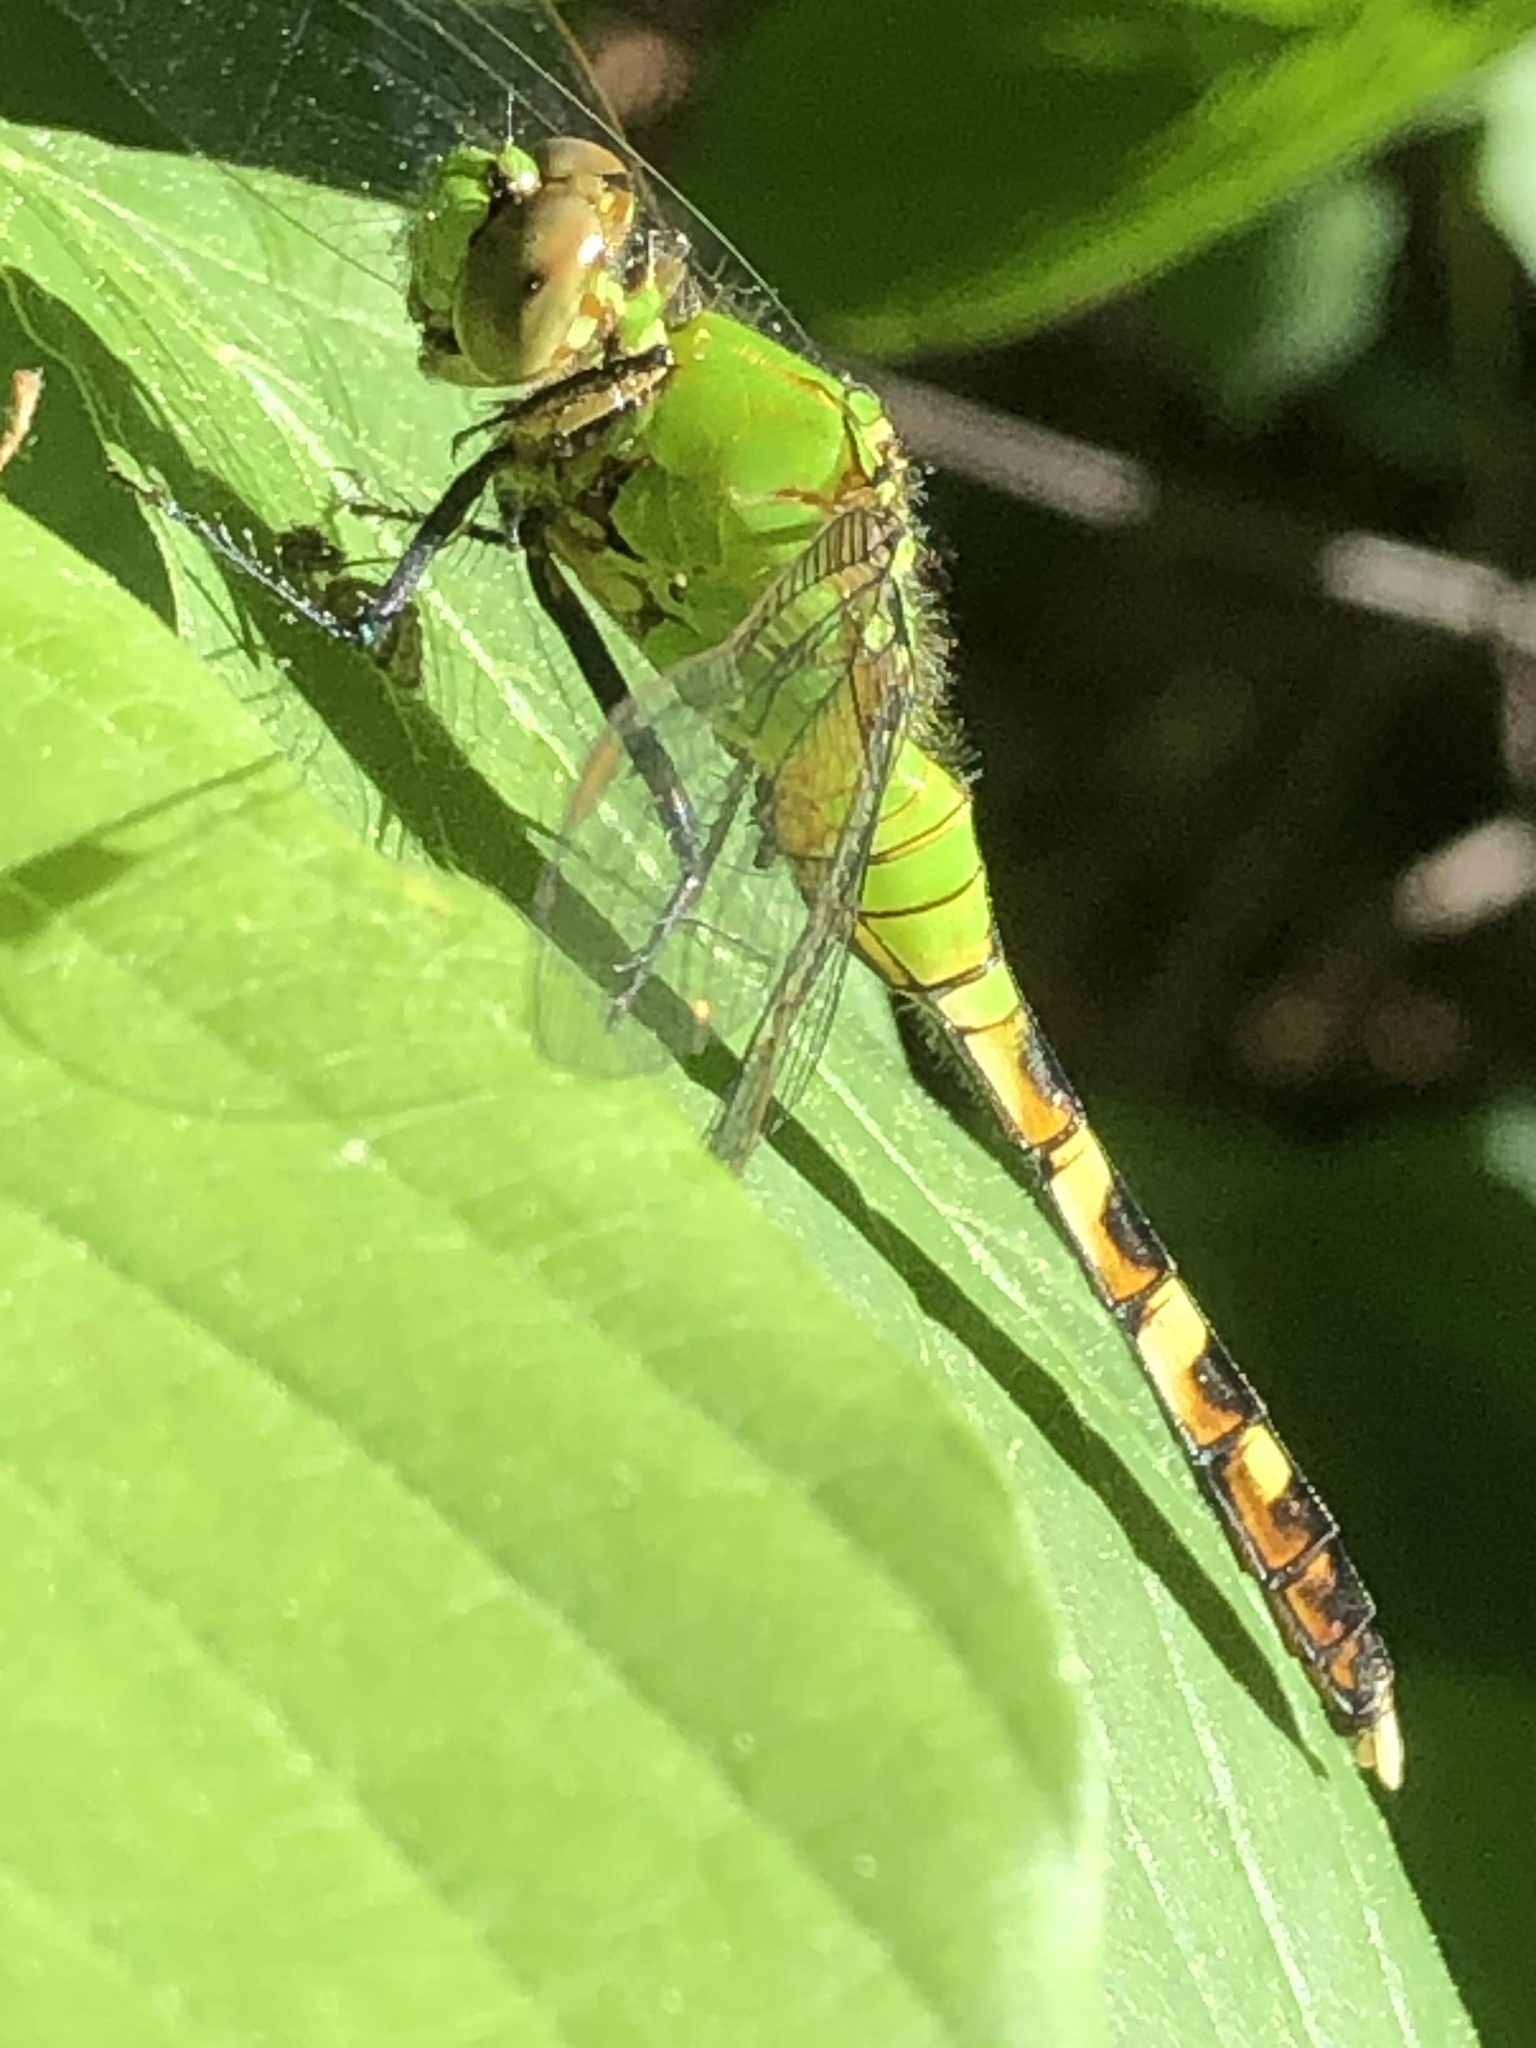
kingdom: Animalia
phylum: Arthropoda
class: Insecta
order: Odonata
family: Libellulidae
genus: Erythemis
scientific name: Erythemis simplicicollis
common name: Eastern pondhawk
